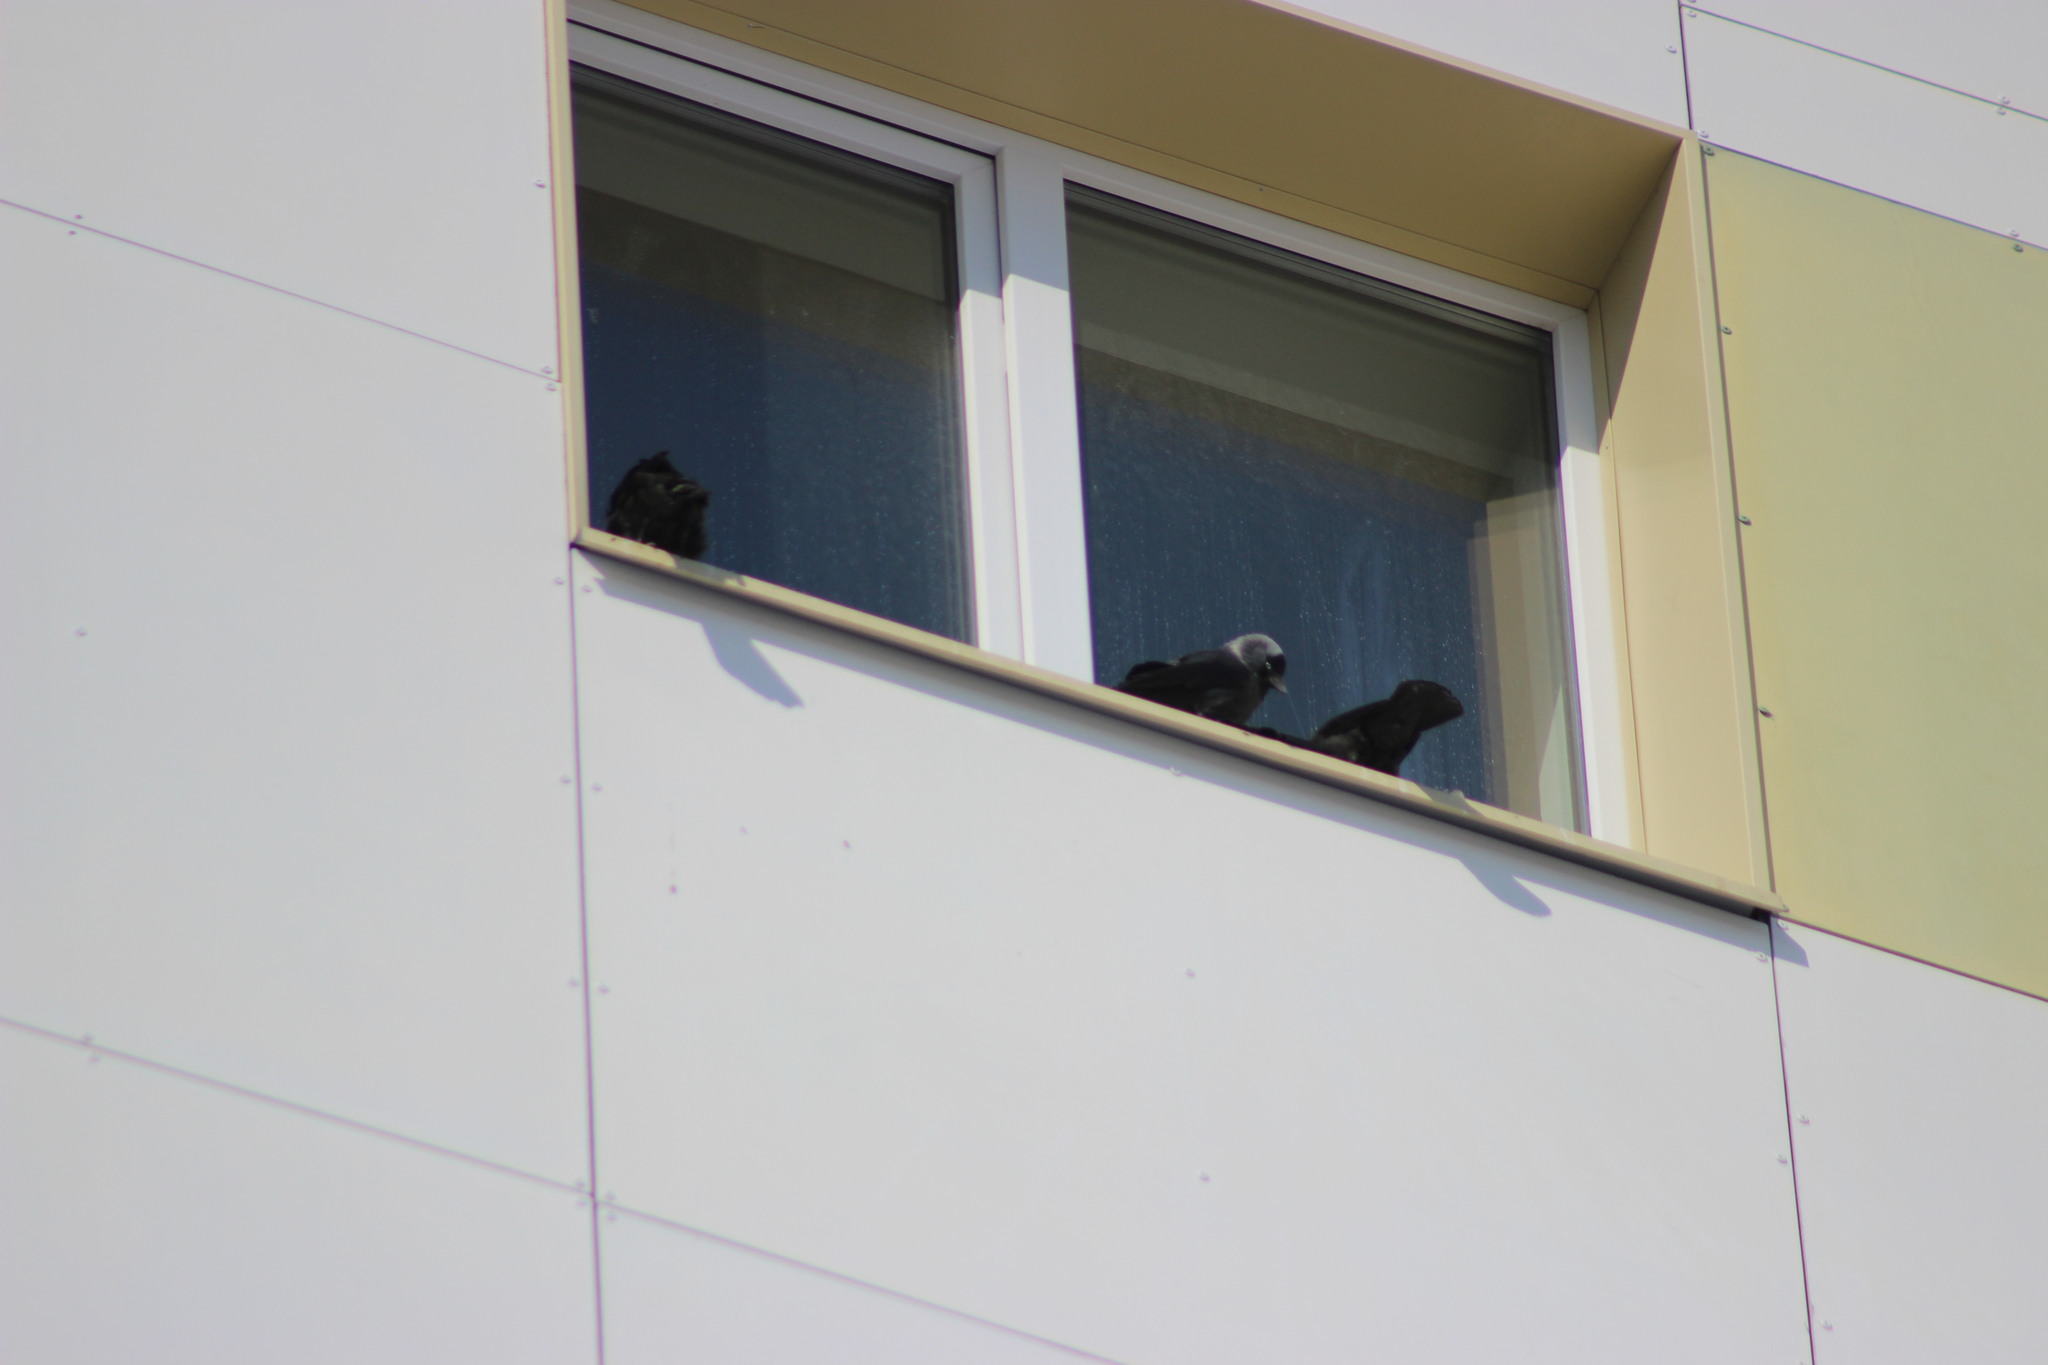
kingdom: Animalia
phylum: Chordata
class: Aves
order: Passeriformes
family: Corvidae
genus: Coloeus
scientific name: Coloeus monedula
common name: Western jackdaw
